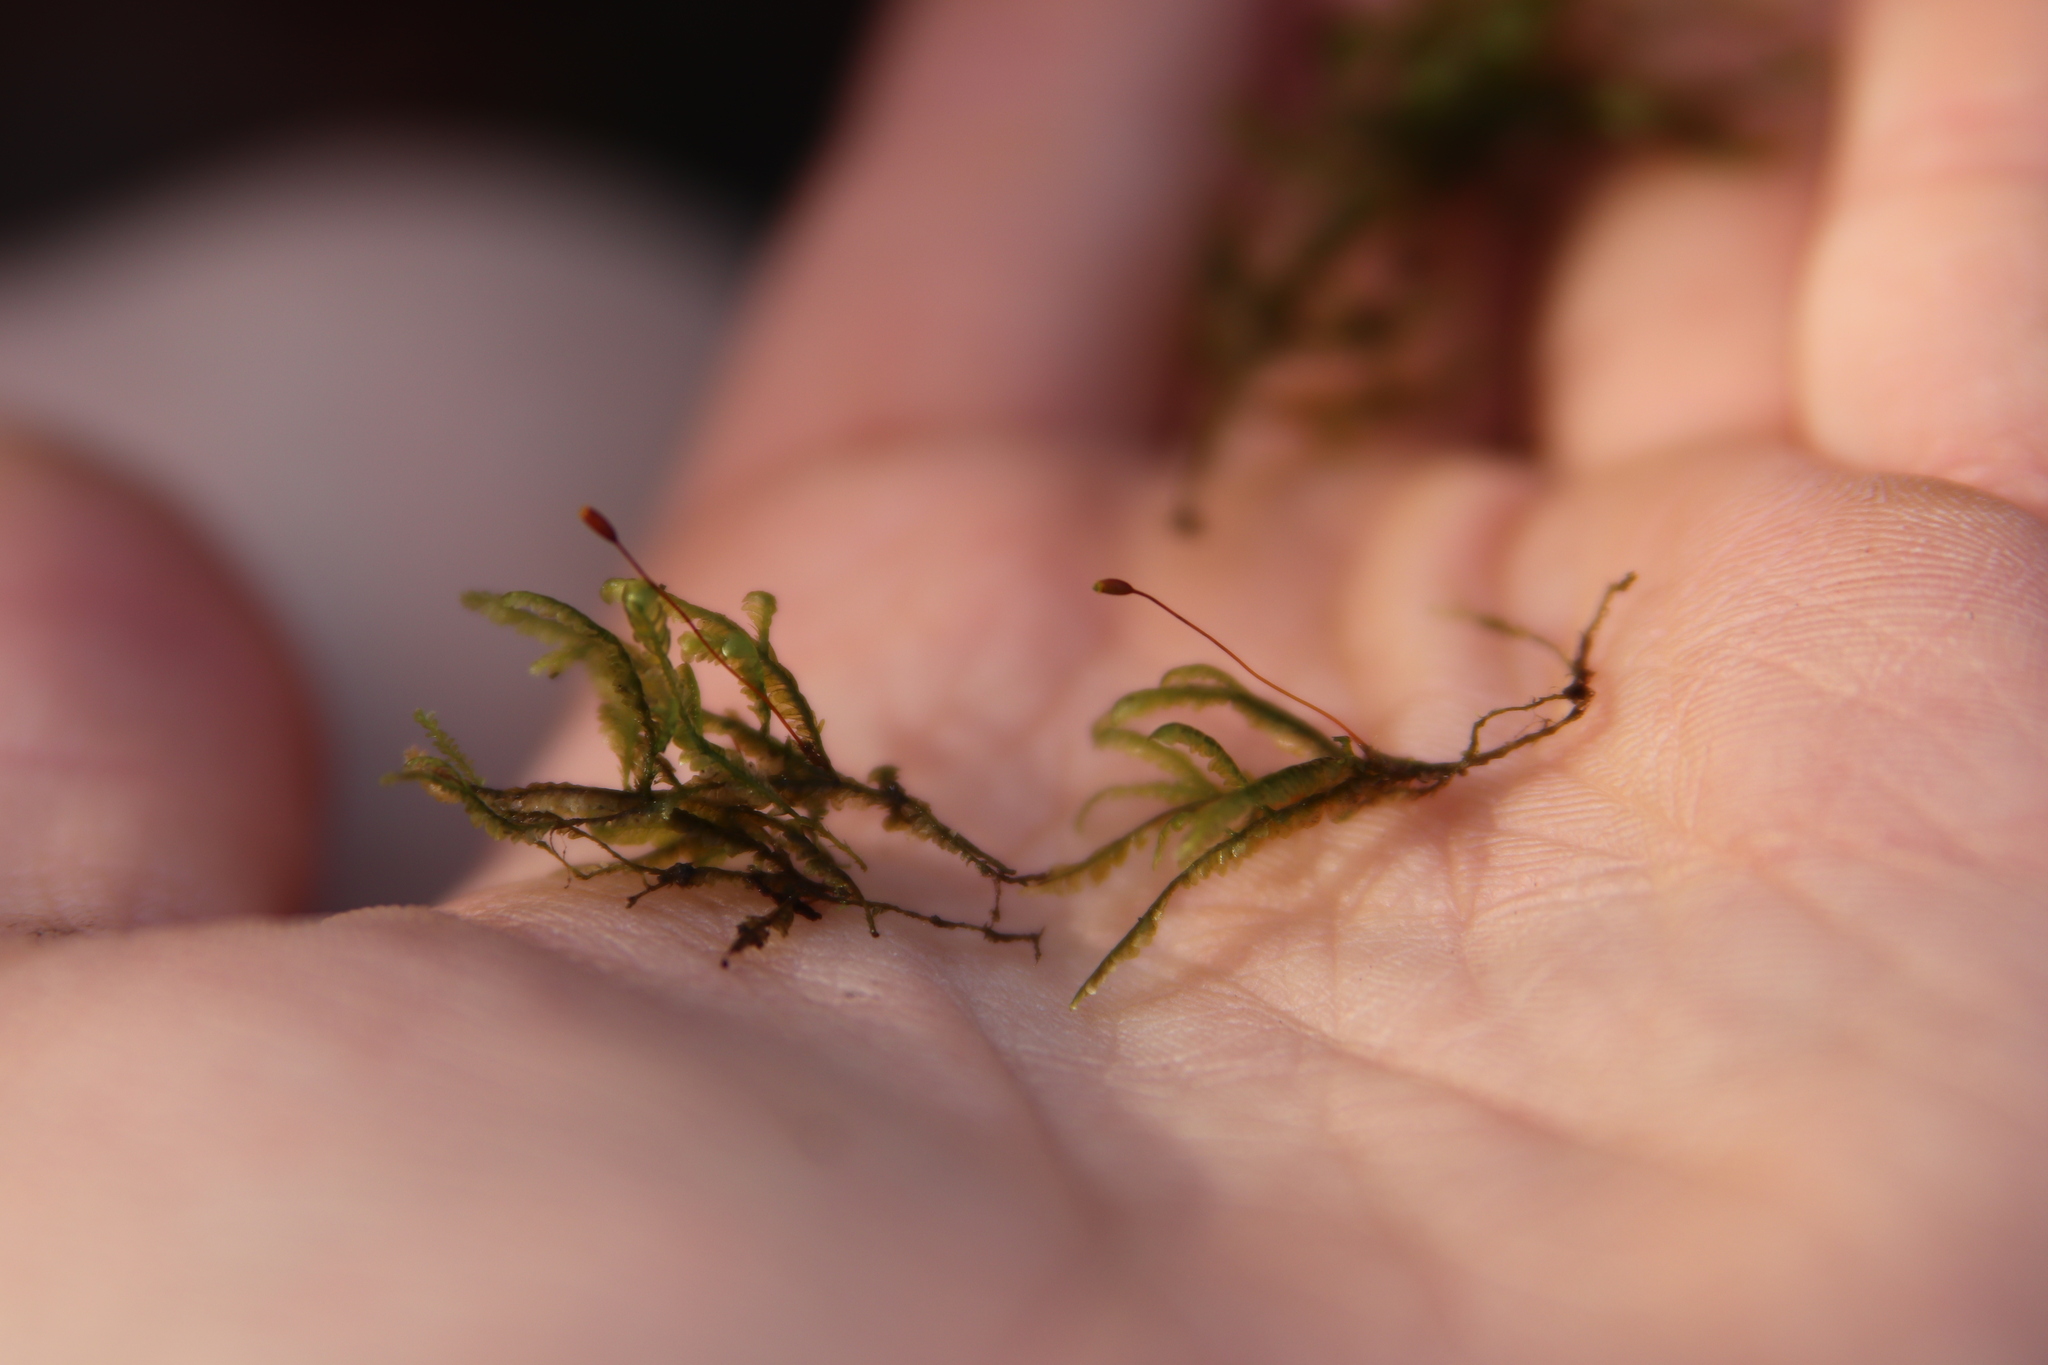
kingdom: Plantae
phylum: Bryophyta
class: Bryopsida
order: Hypnales
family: Neckeraceae
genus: Homalia
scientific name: Homalia trichomanoides
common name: Lime homalia moss
